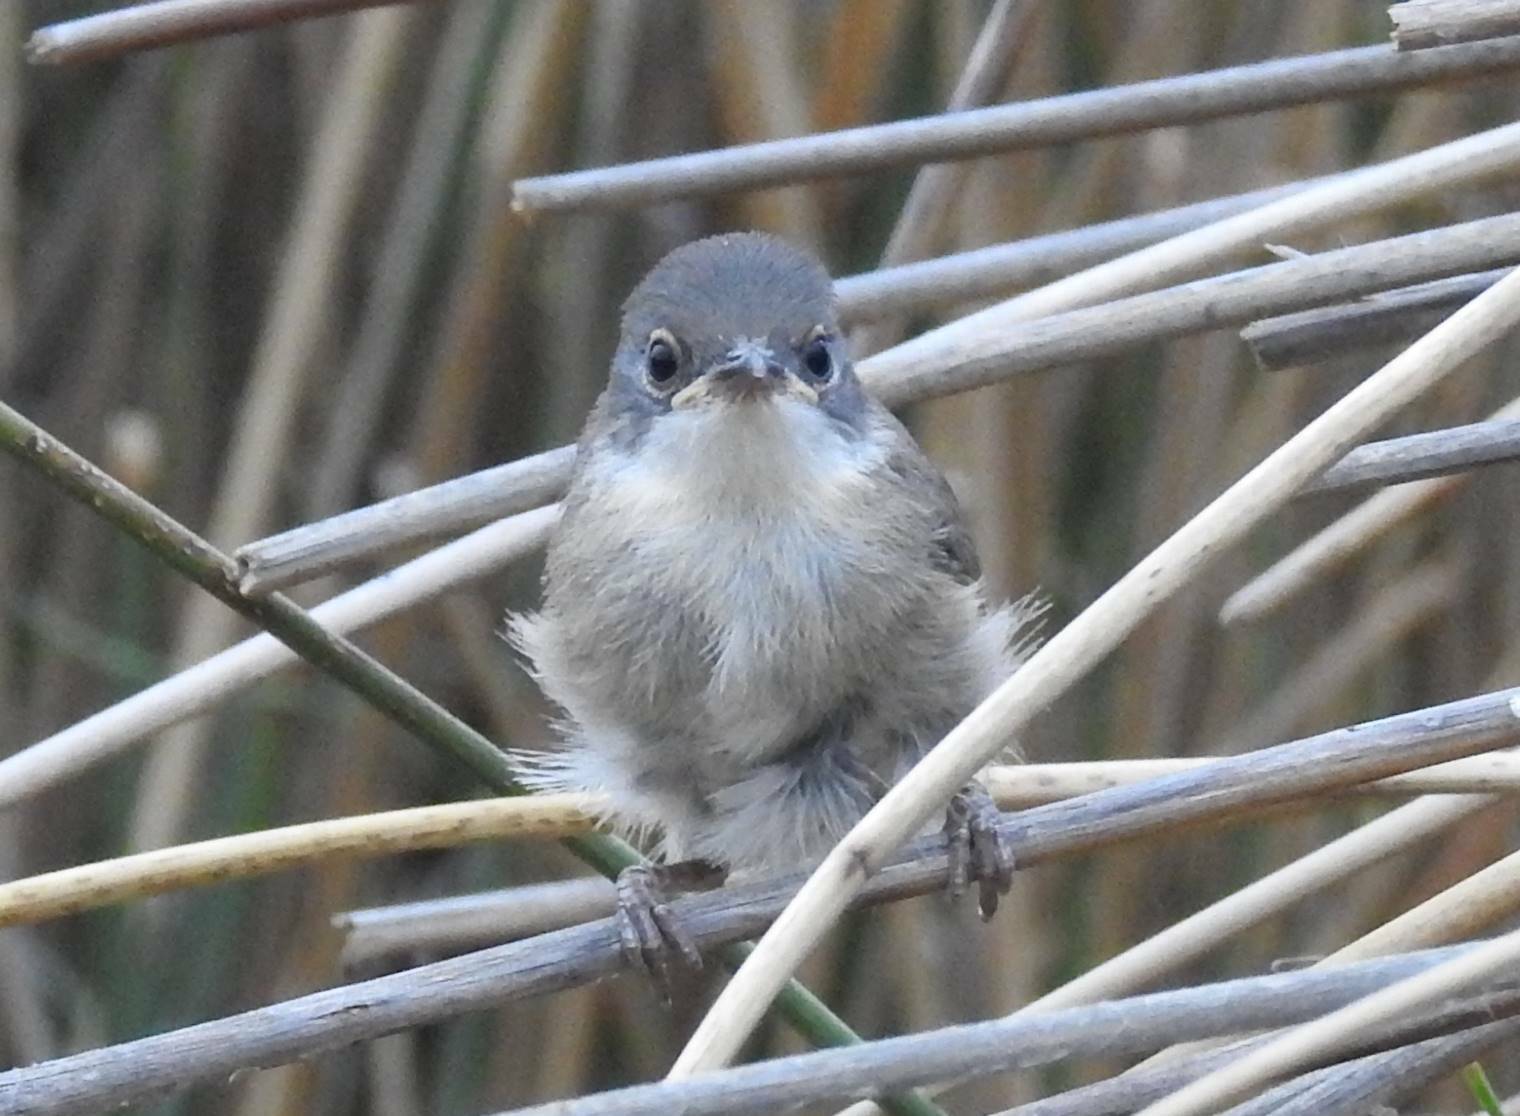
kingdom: Animalia
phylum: Chordata
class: Aves
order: Passeriformes
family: Sylviidae
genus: Curruca
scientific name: Curruca melanocephala
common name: Sardinian warbler
